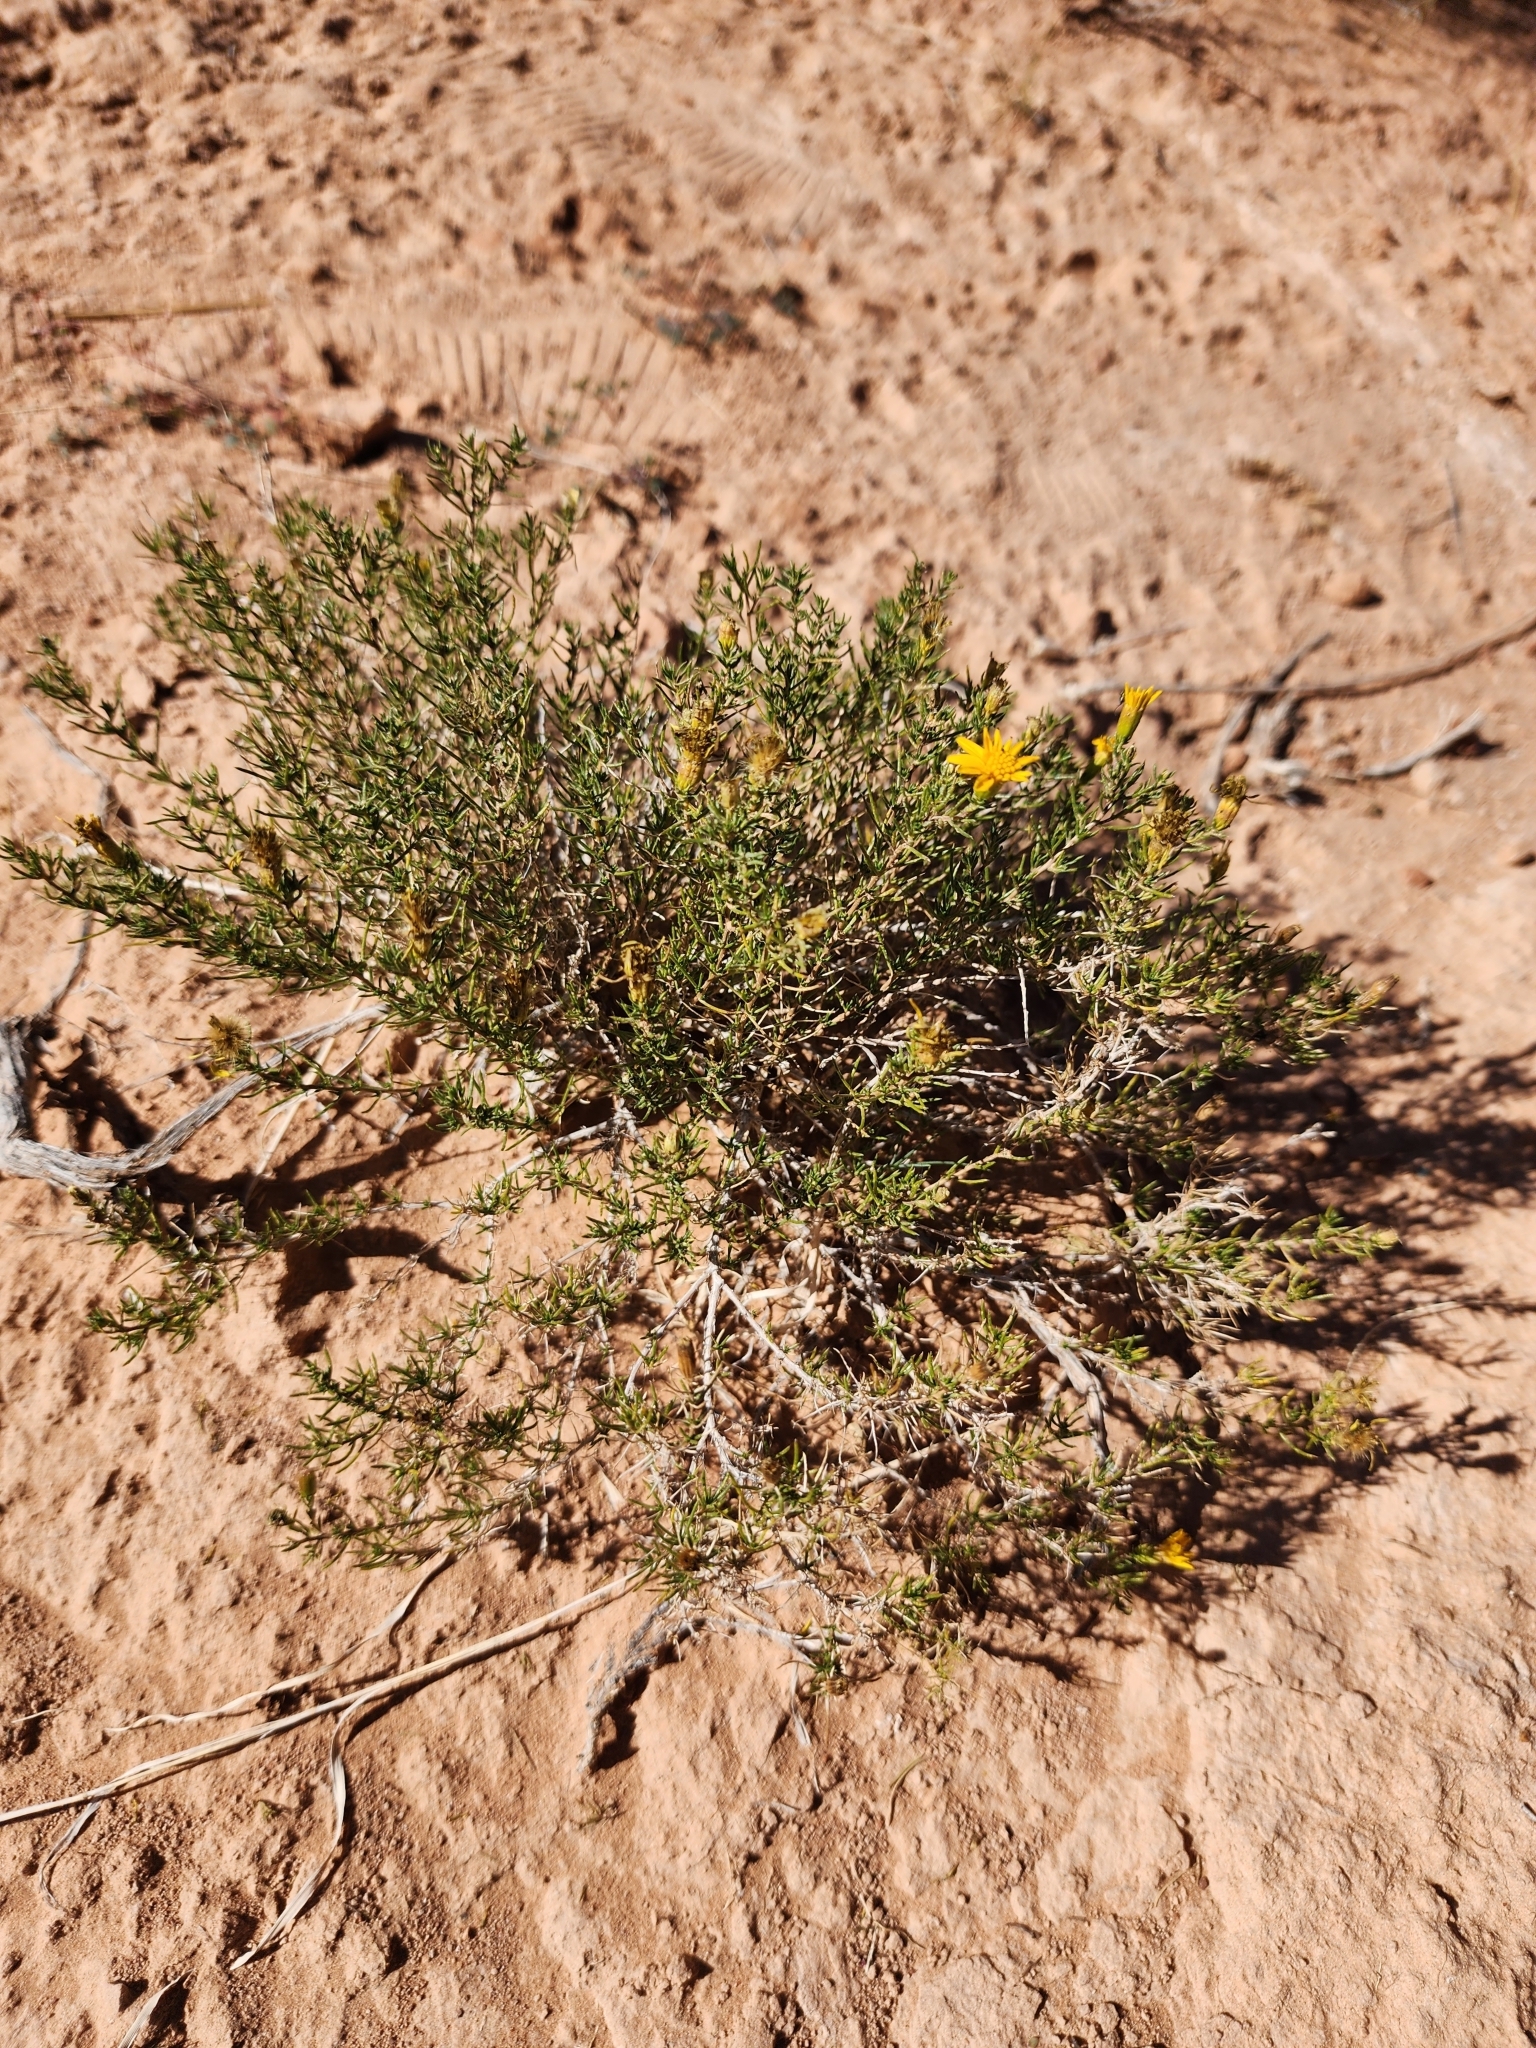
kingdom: Plantae
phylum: Tracheophyta
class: Magnoliopsida
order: Asterales
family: Asteraceae
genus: Thymophylla
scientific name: Thymophylla acerosa
